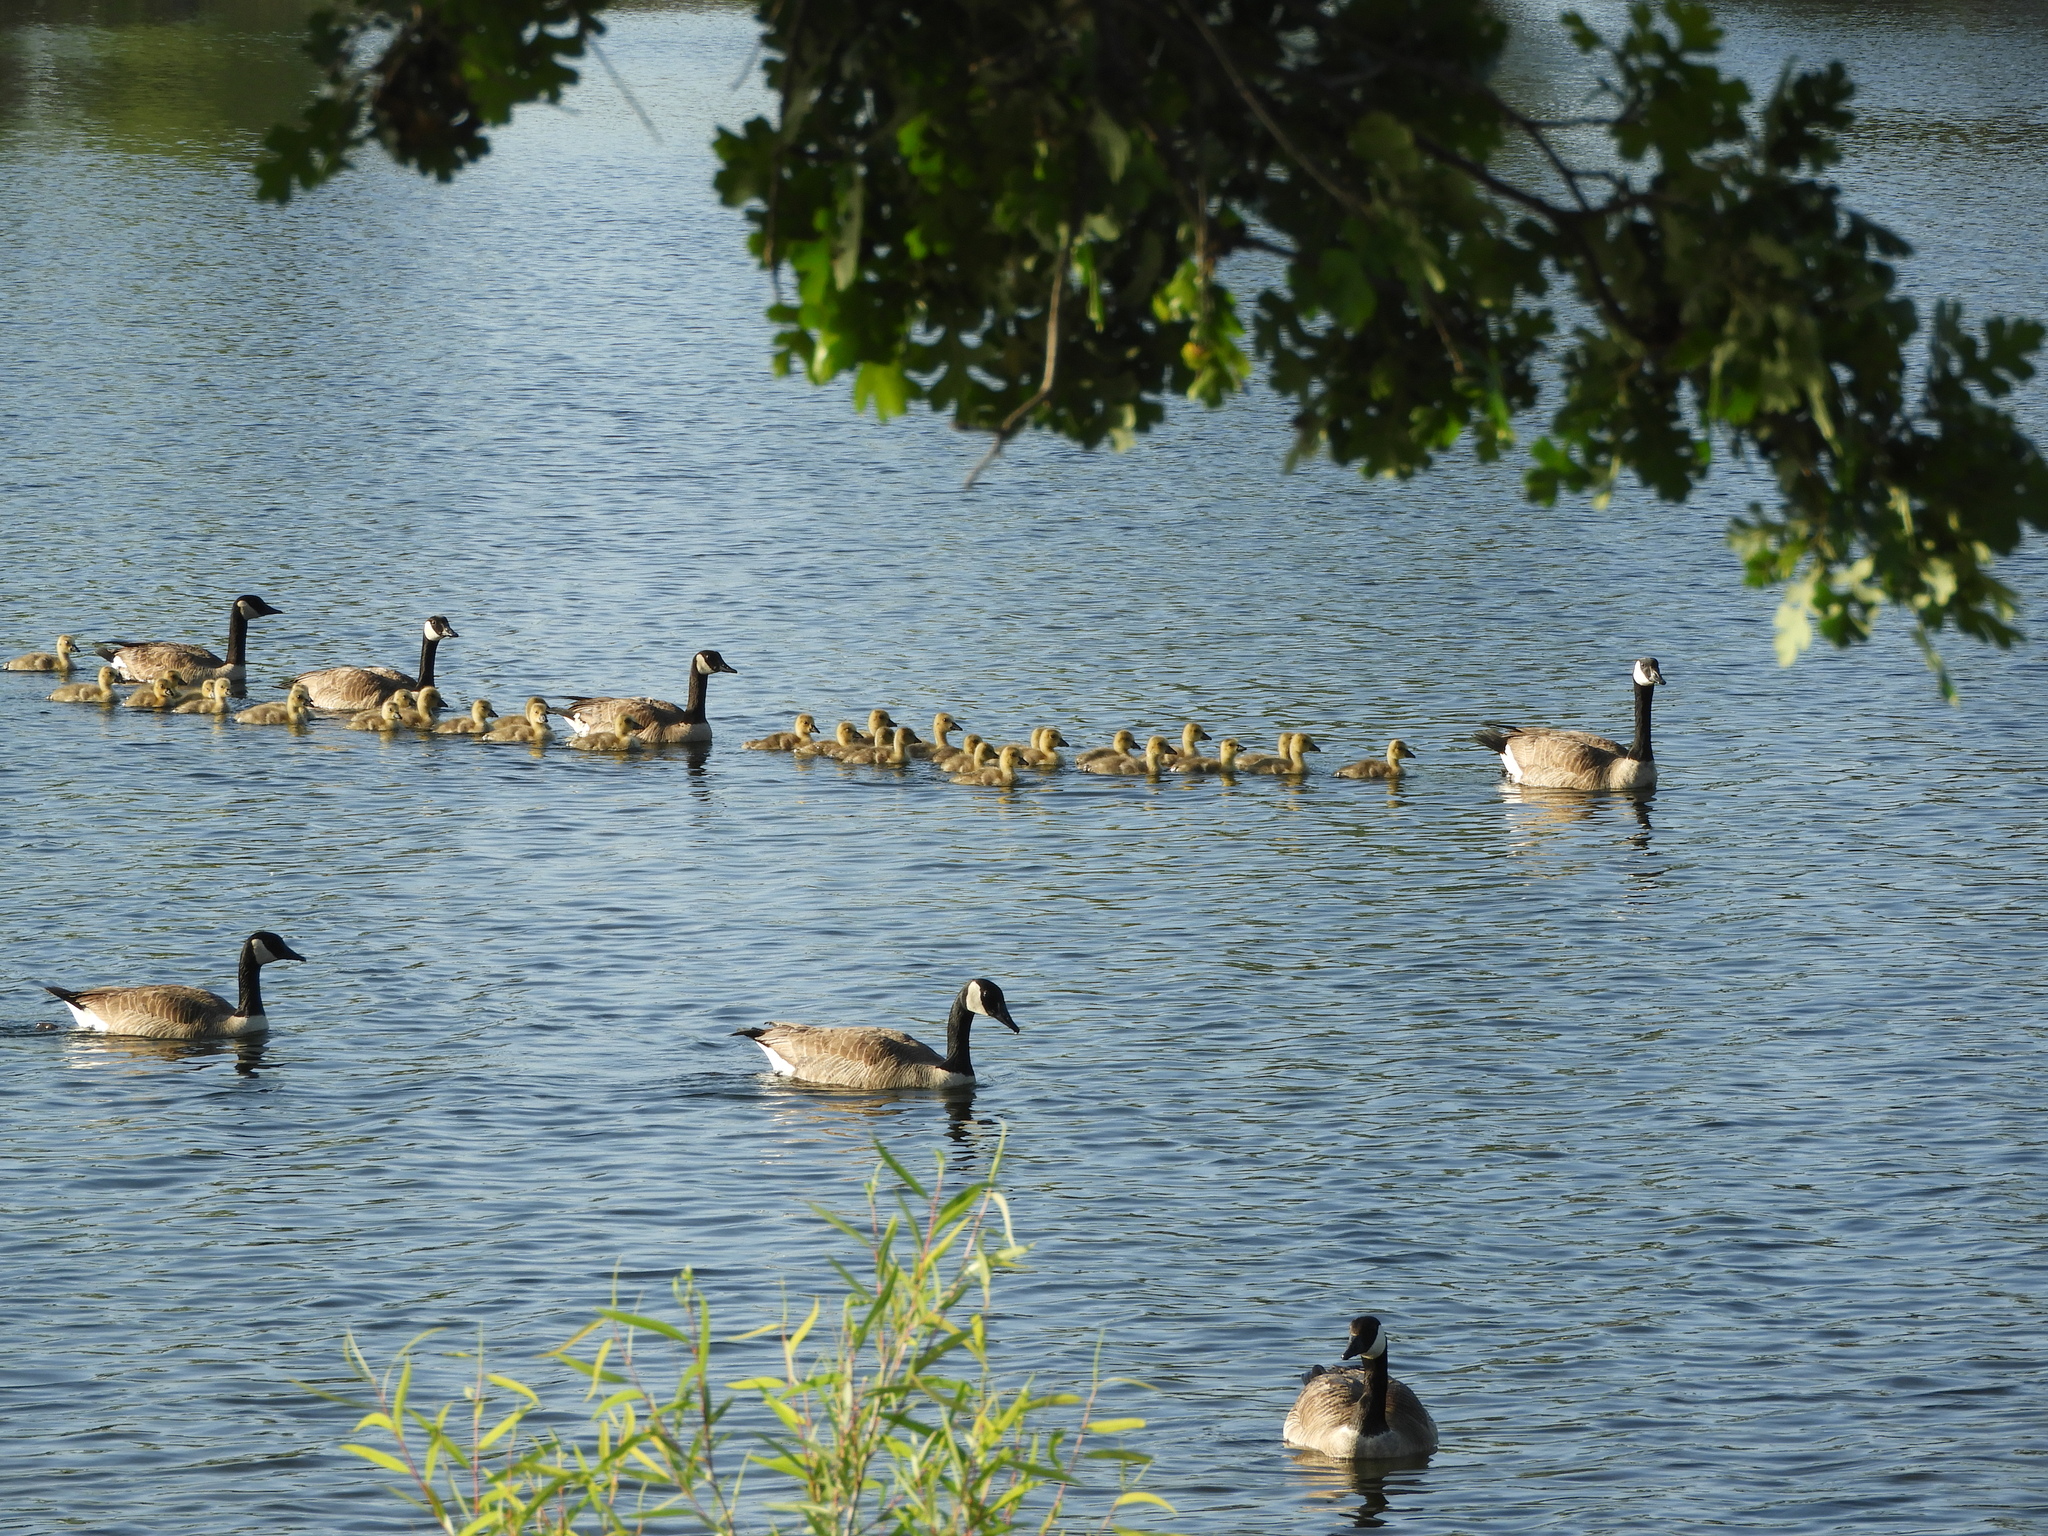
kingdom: Animalia
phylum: Chordata
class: Aves
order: Anseriformes
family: Anatidae
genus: Branta
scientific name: Branta canadensis
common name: Canada goose
